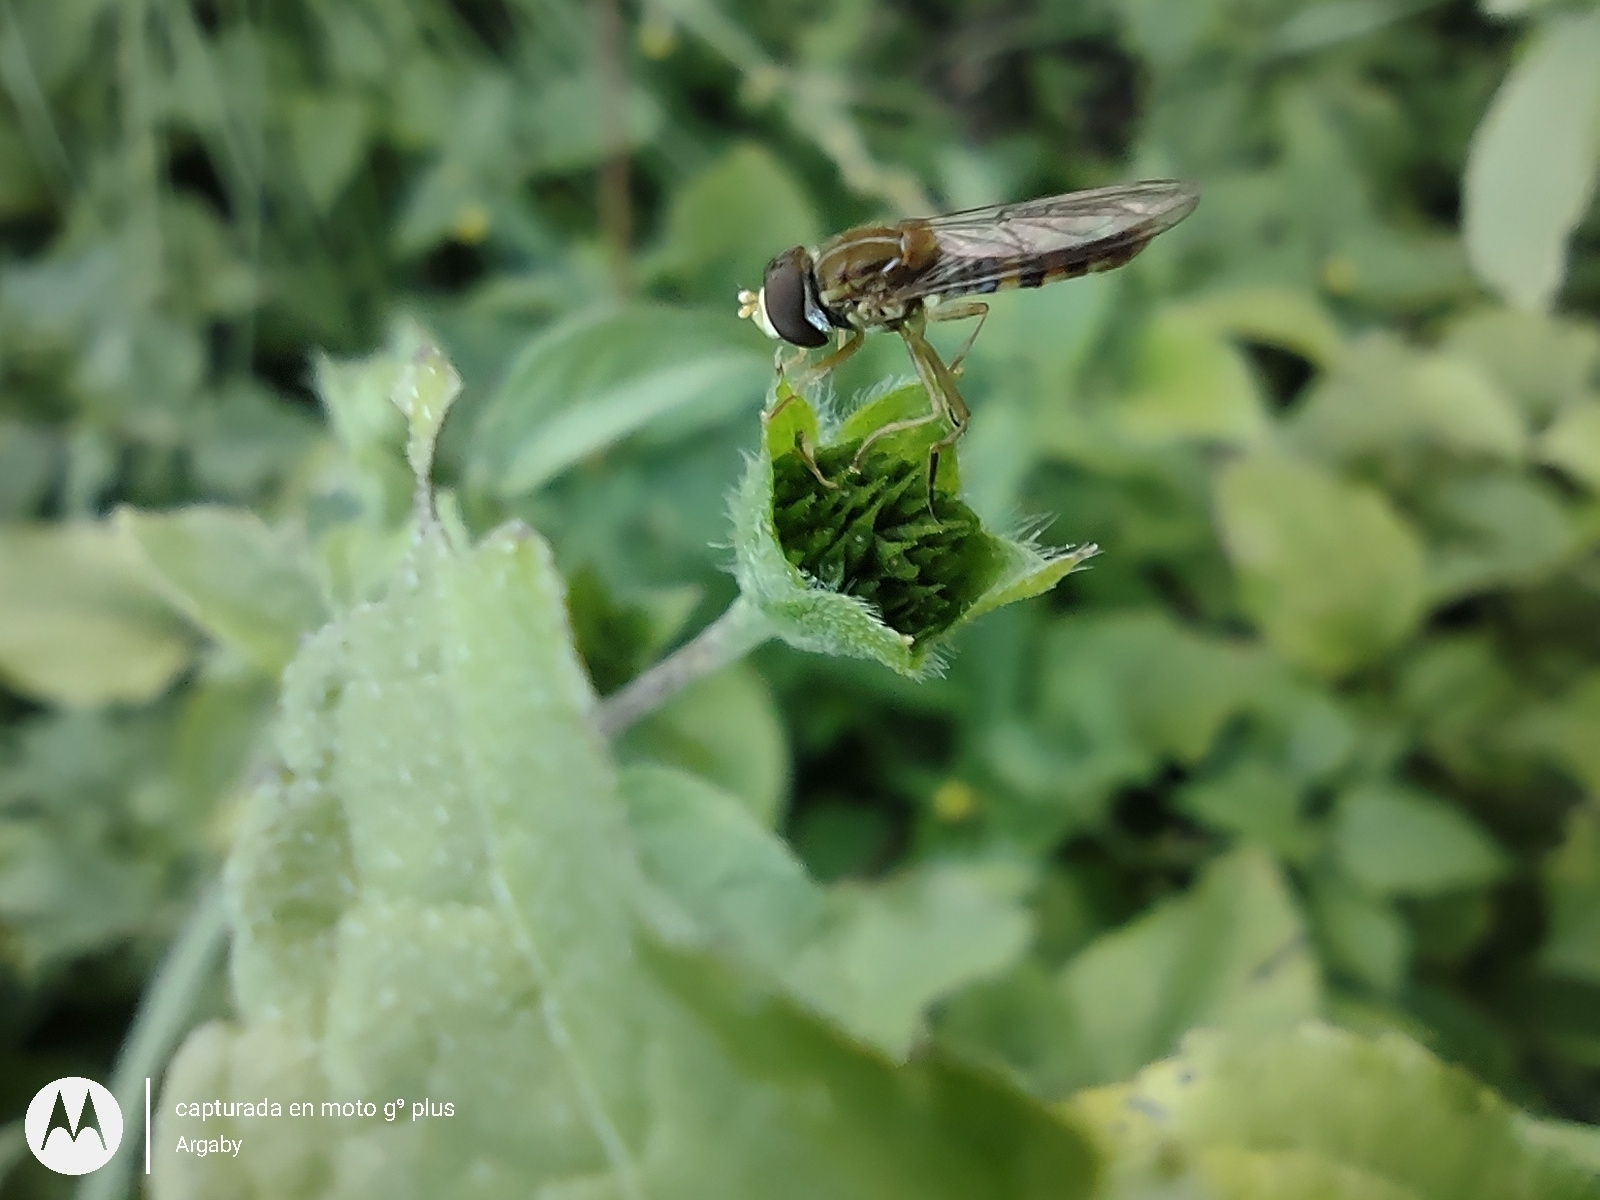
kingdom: Animalia
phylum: Arthropoda
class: Insecta
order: Diptera
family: Syrphidae
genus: Toxomerus
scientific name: Toxomerus
